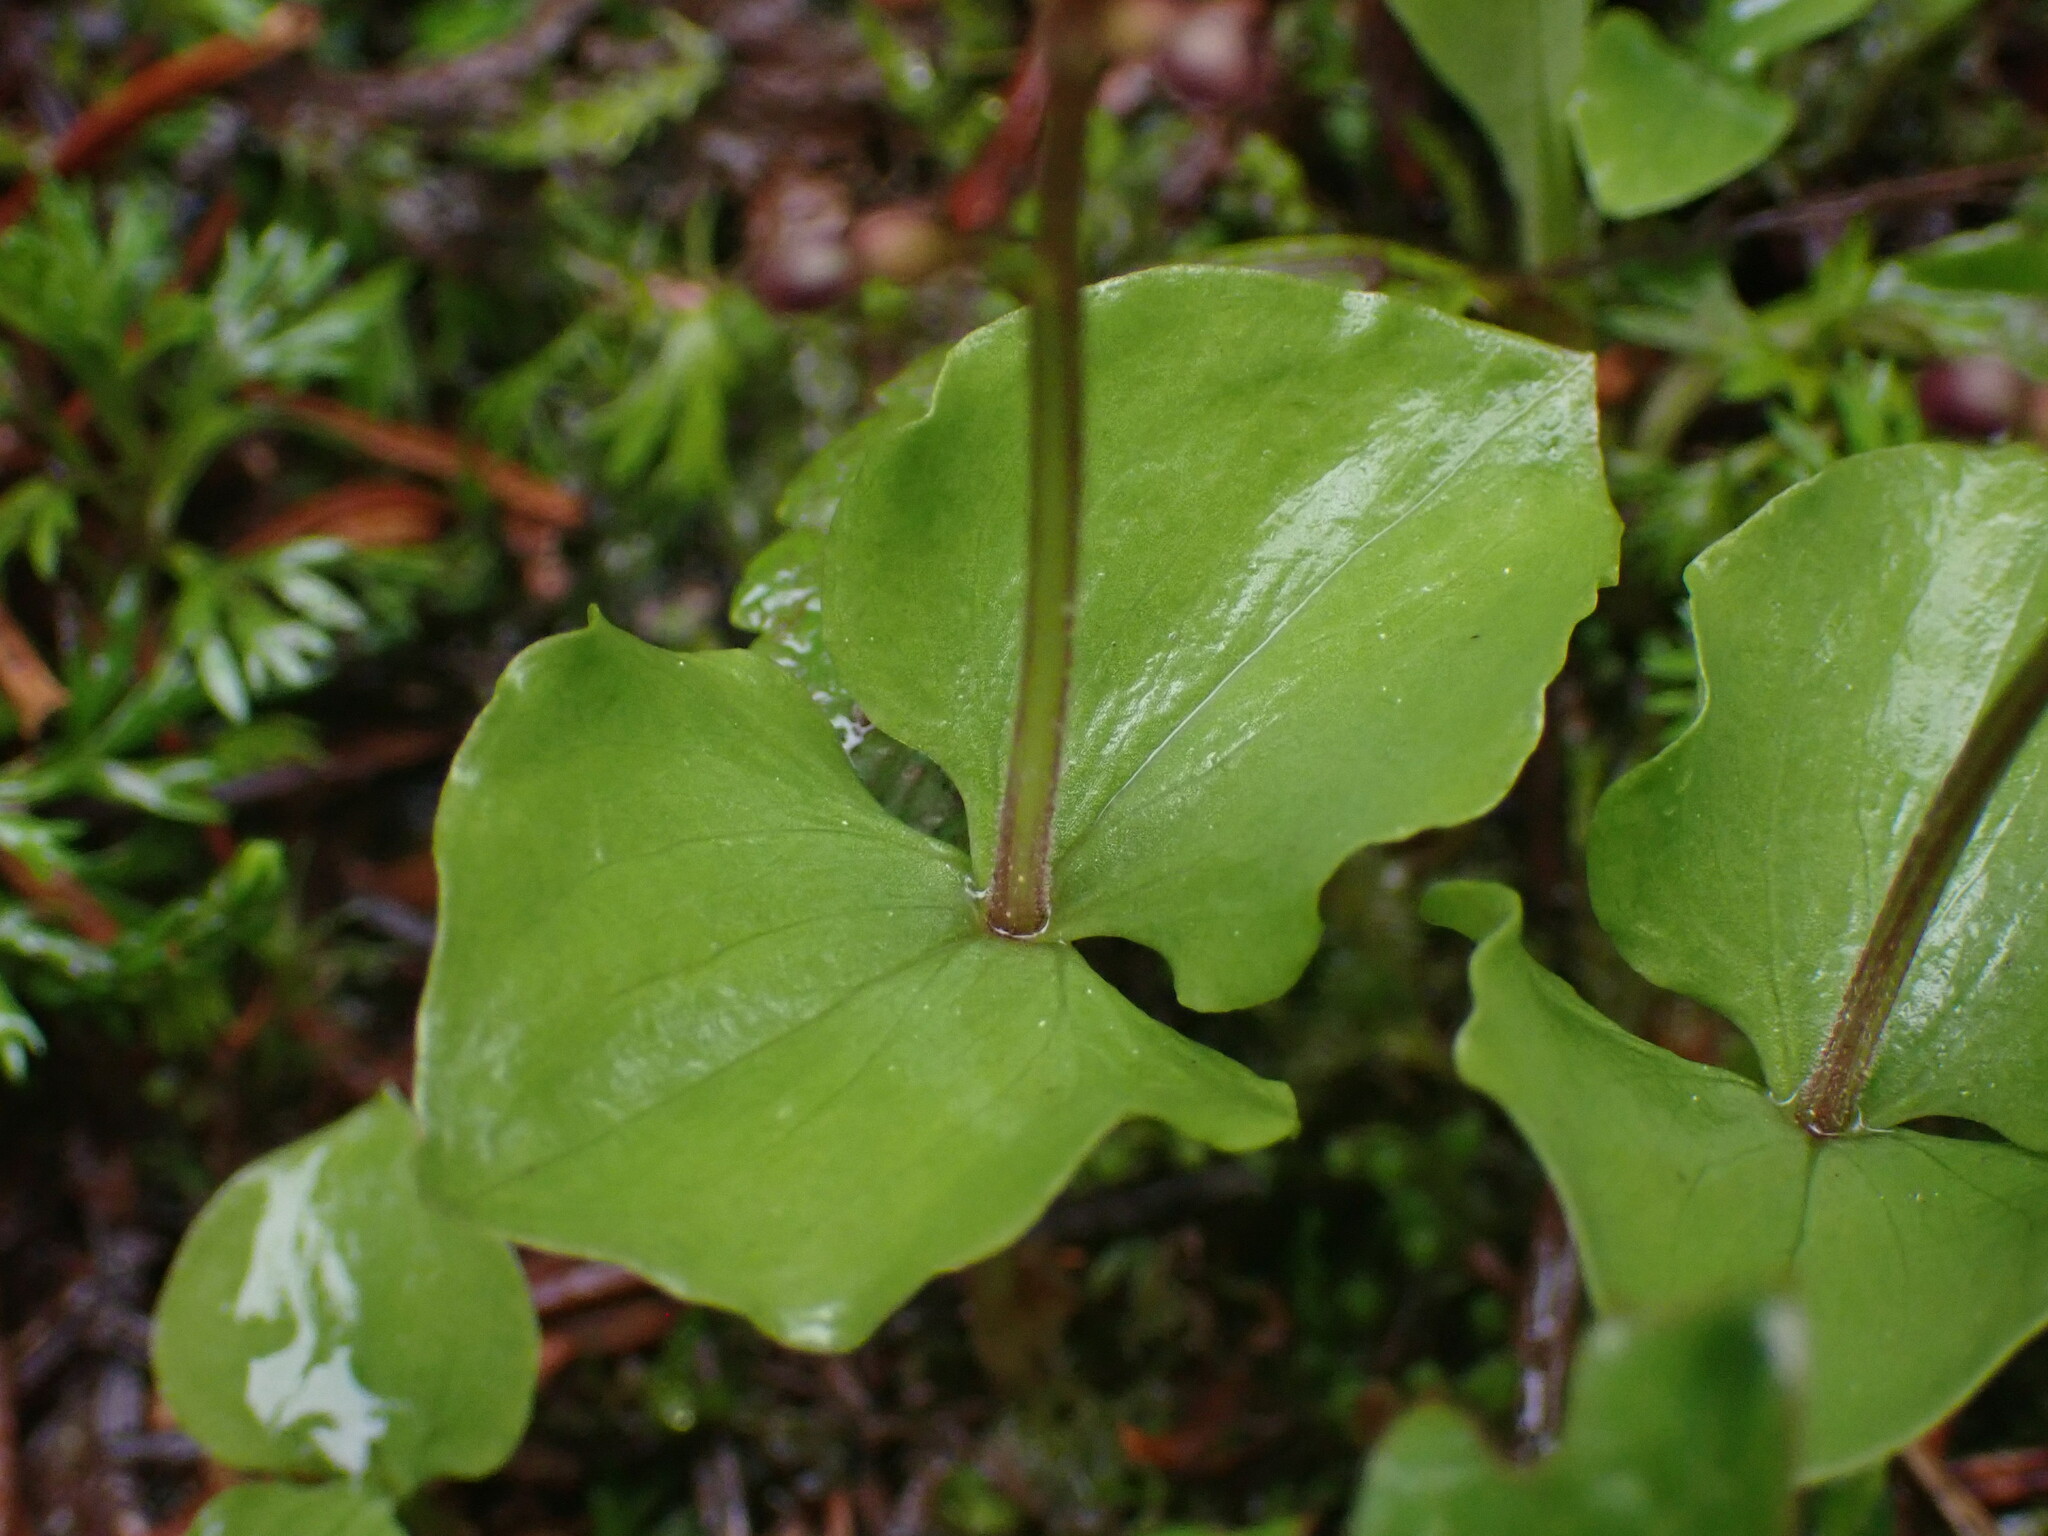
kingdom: Plantae
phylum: Tracheophyta
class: Liliopsida
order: Asparagales
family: Orchidaceae
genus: Neottia
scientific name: Neottia cordata
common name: Lesser twayblade
